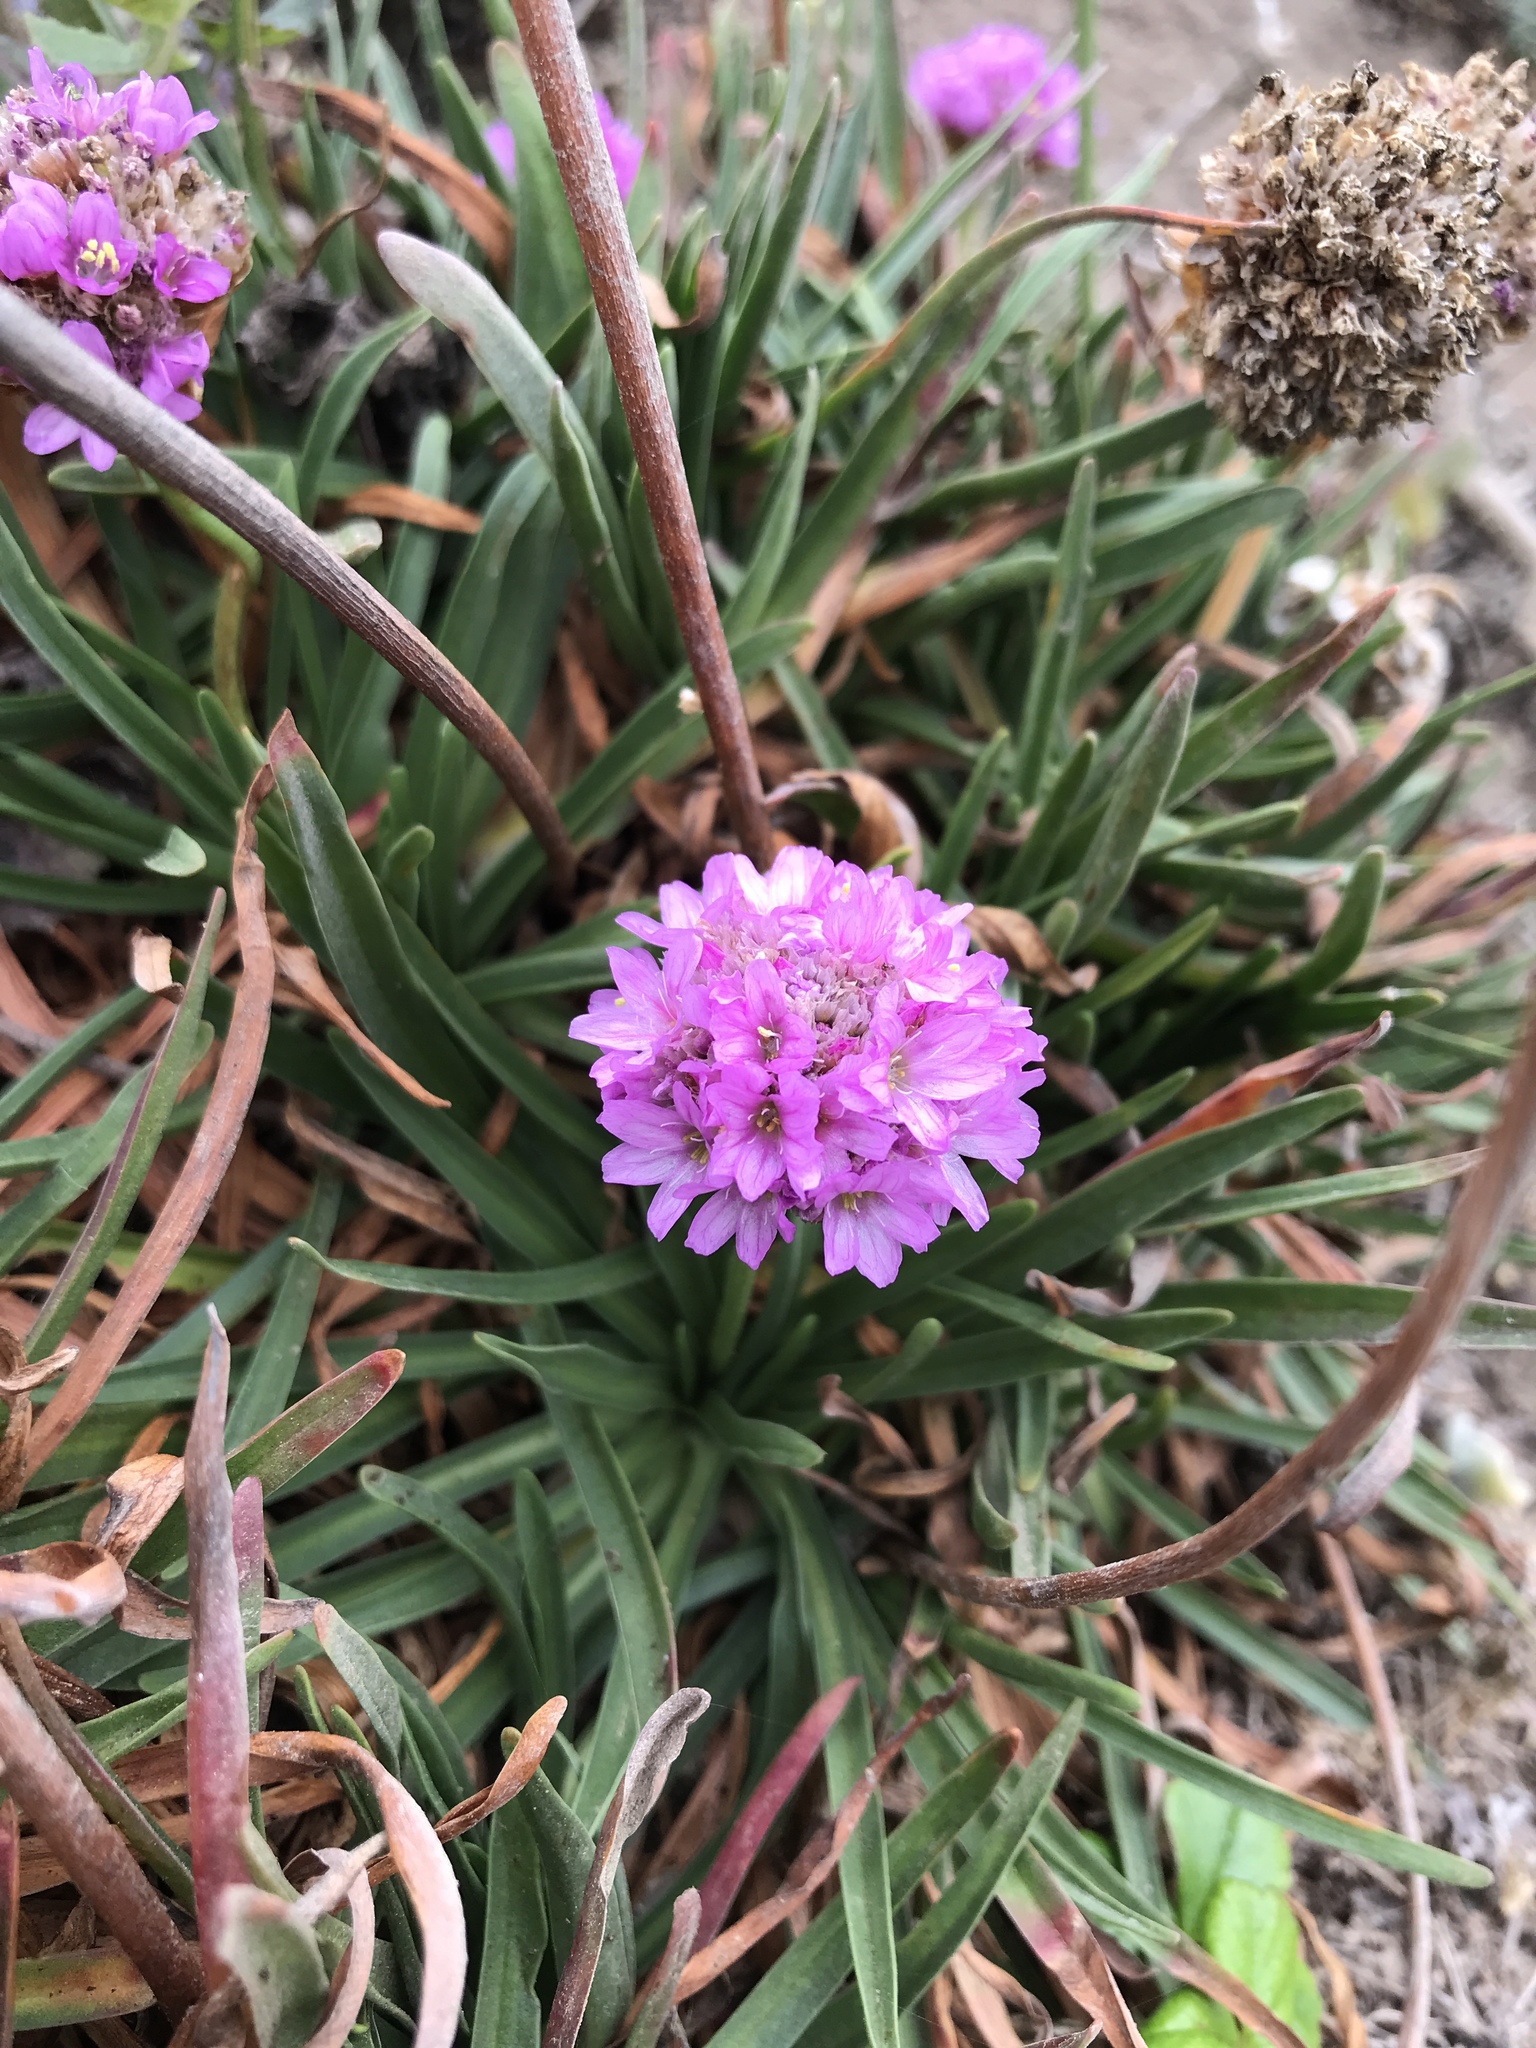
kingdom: Plantae
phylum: Tracheophyta
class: Magnoliopsida
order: Caryophyllales
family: Plumbaginaceae
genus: Armeria
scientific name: Armeria maritima
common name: Thrift
